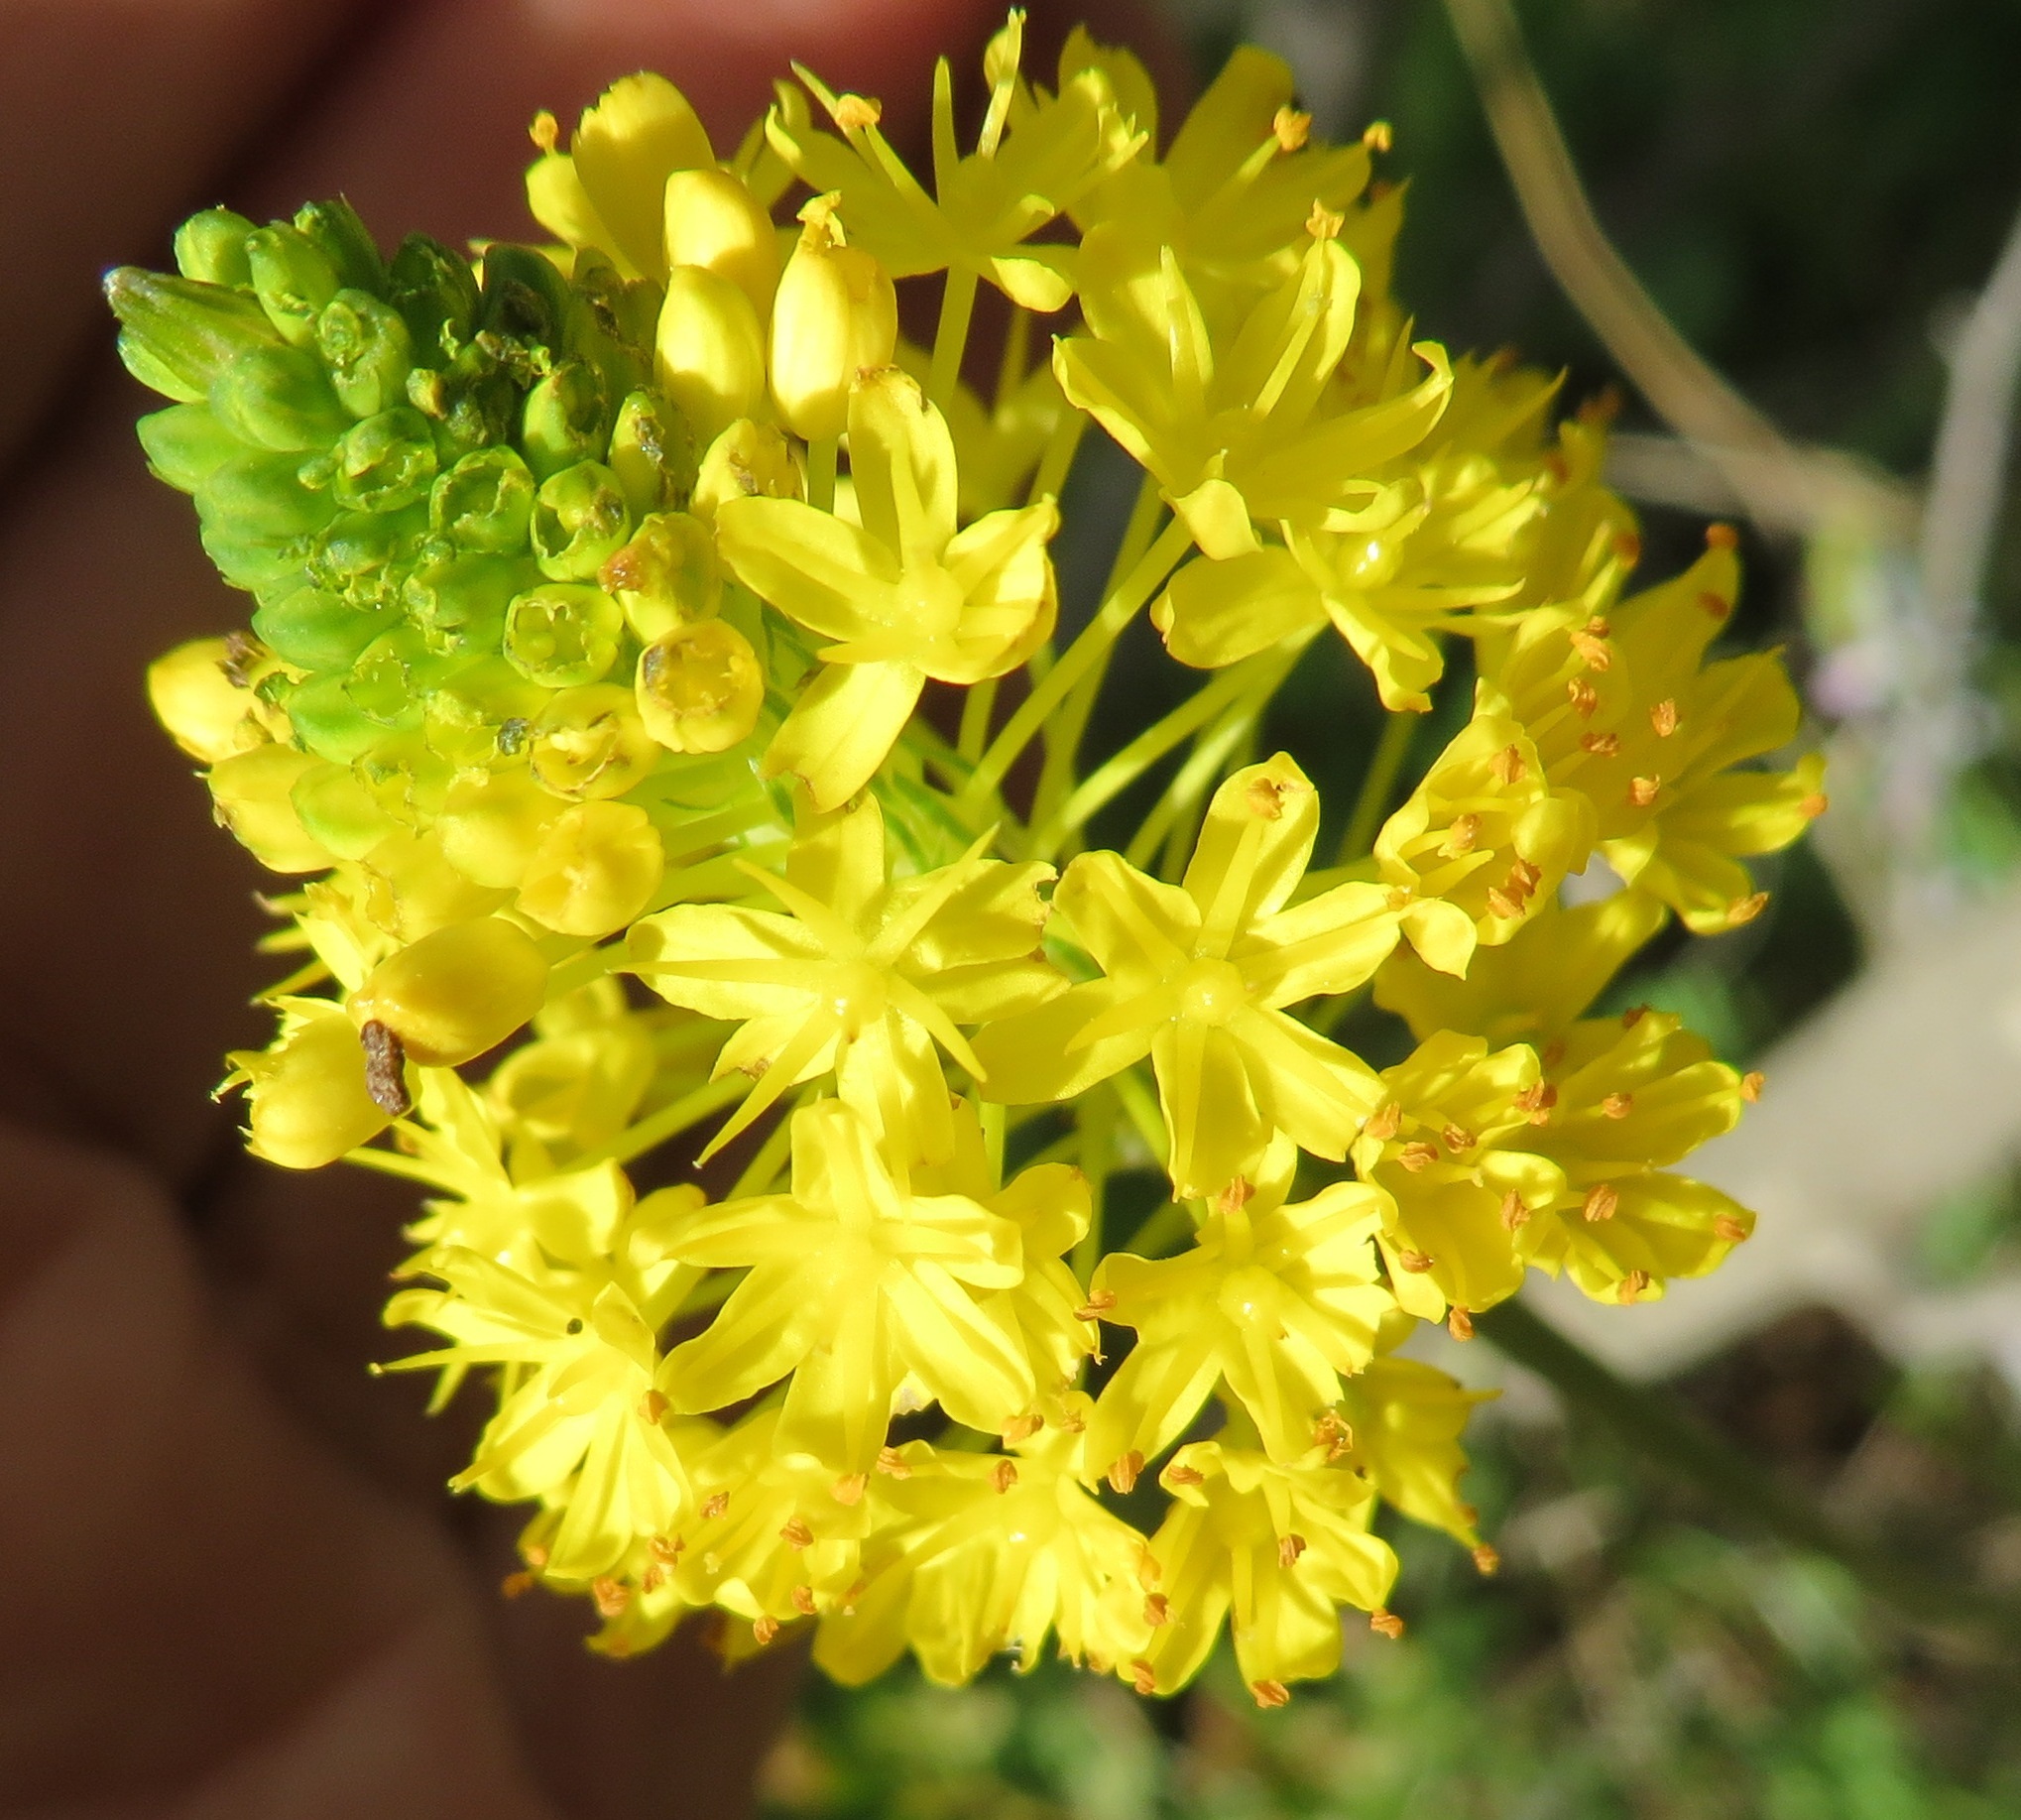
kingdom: Plantae
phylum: Tracheophyta
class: Liliopsida
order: Asparagales
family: Asphodelaceae
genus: Bulbinella
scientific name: Bulbinella triquetra
